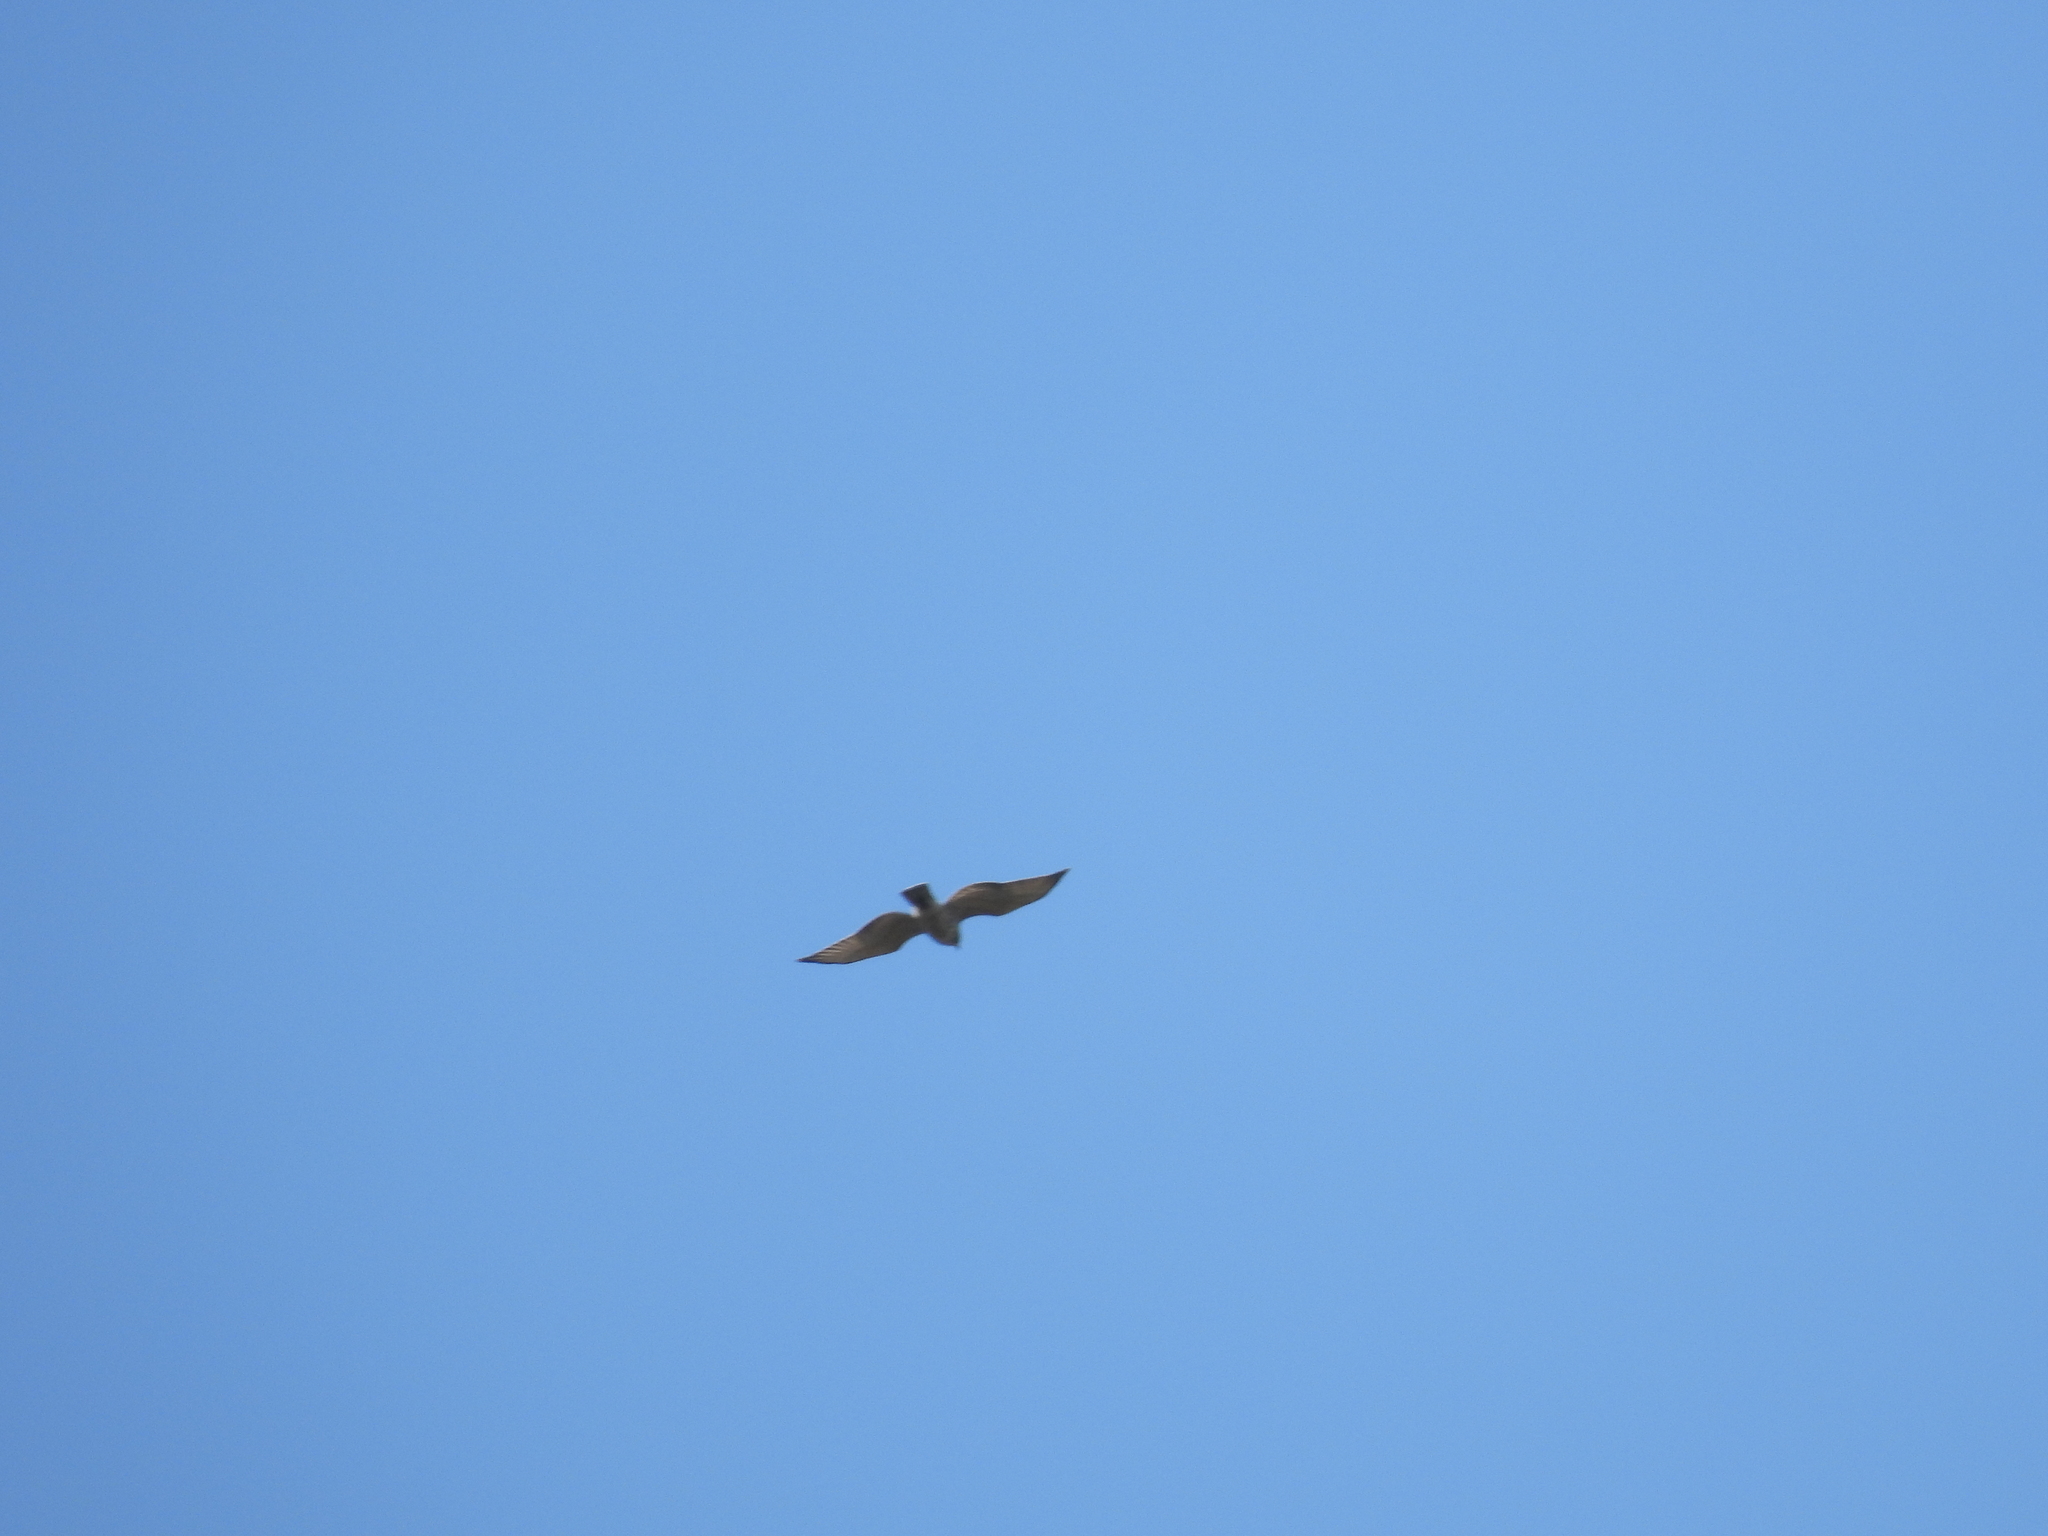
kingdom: Animalia
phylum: Chordata
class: Aves
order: Accipitriformes
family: Accipitridae
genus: Buteo
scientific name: Buteo platypterus
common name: Broad-winged hawk
